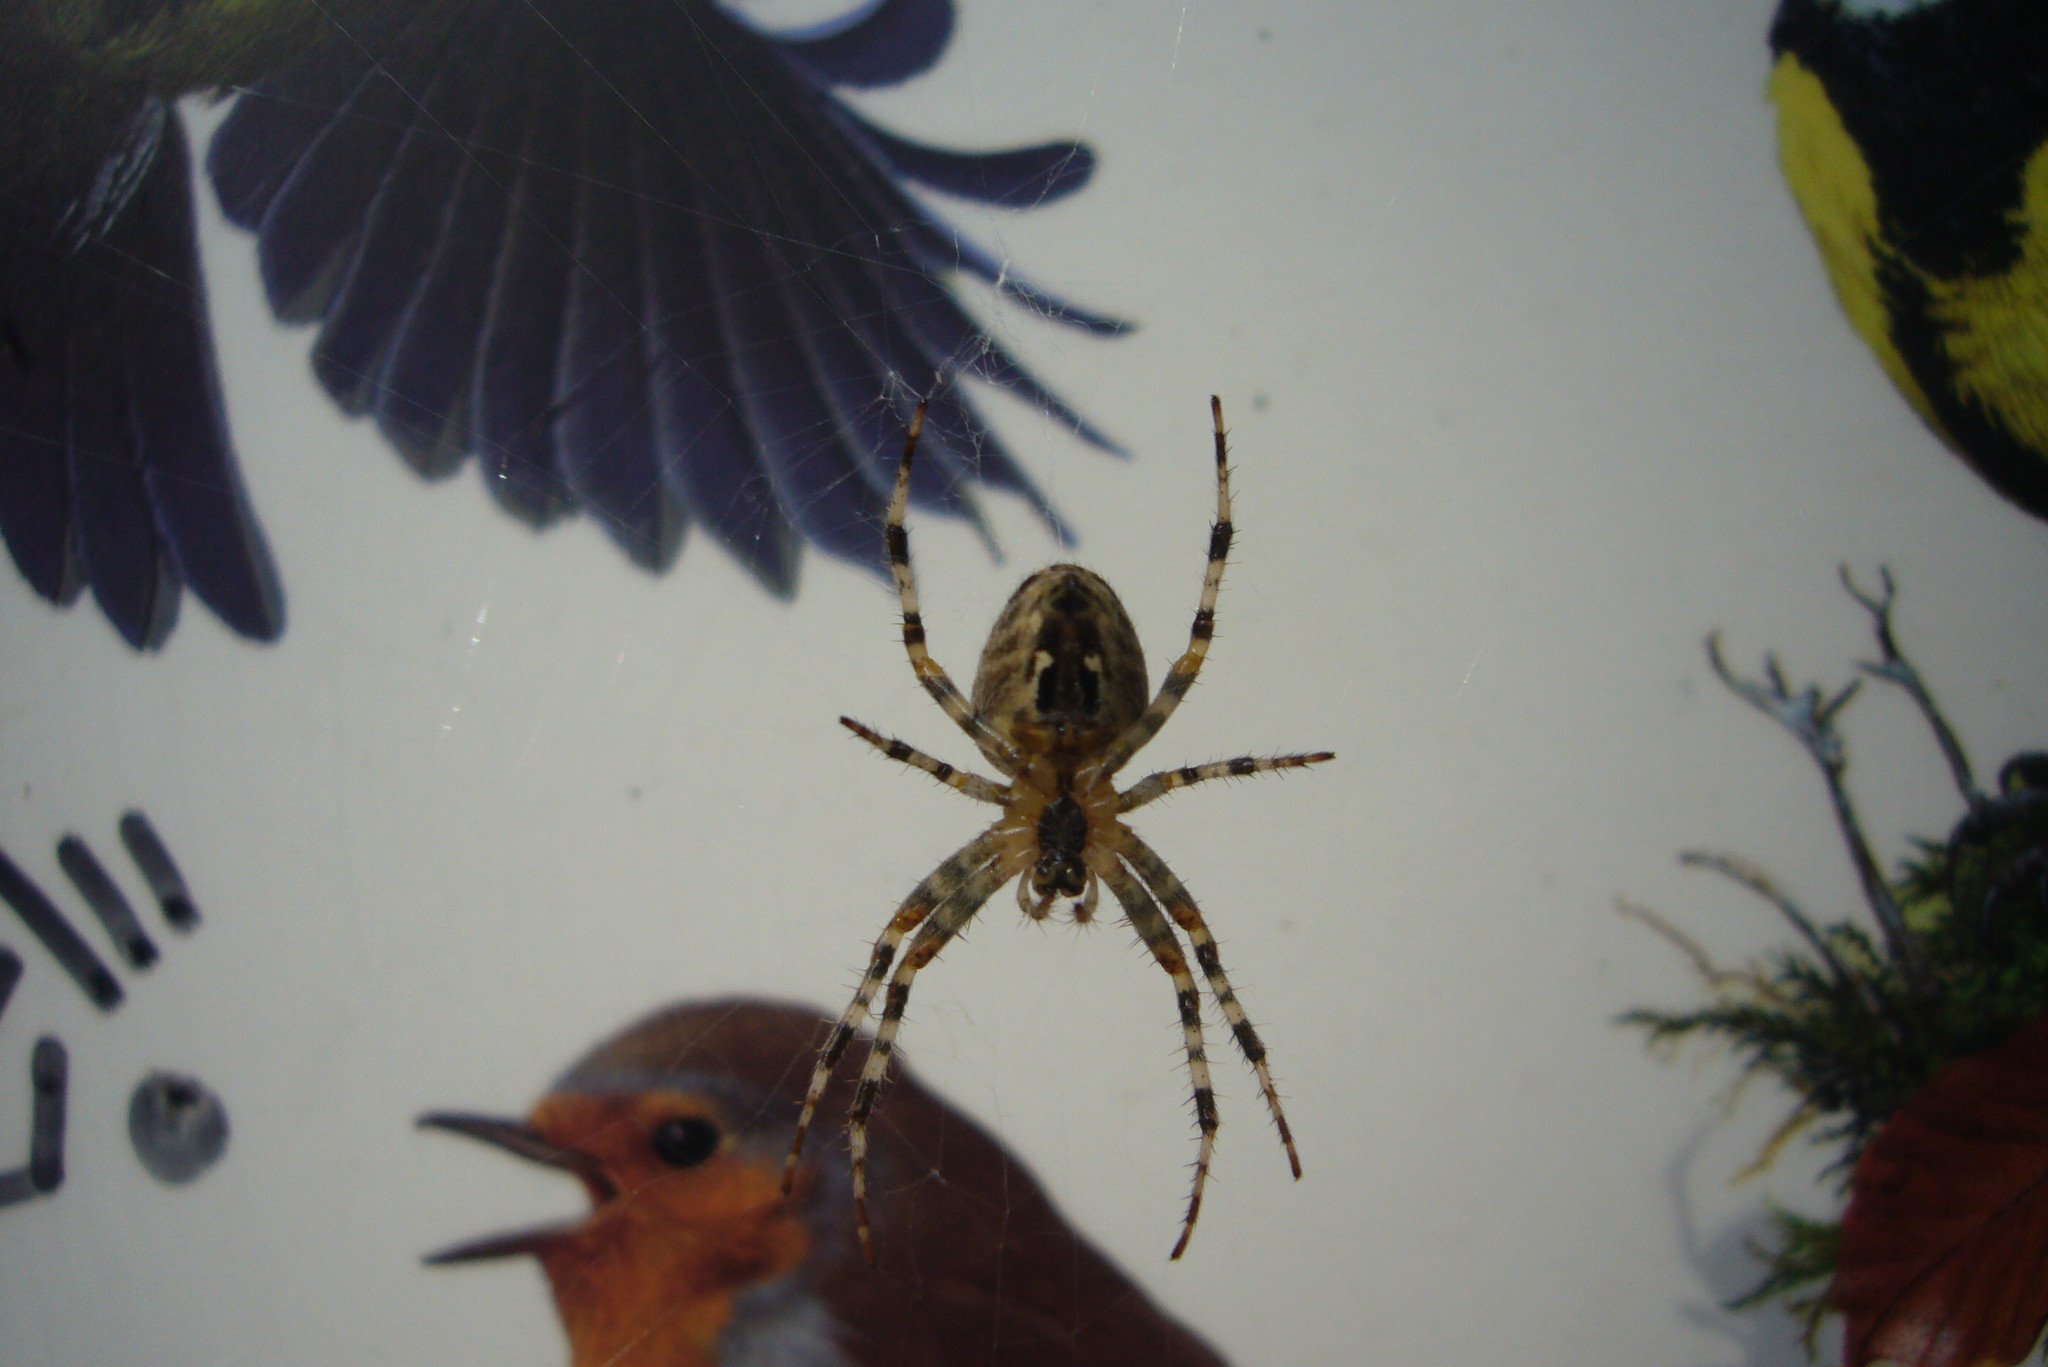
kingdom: Animalia
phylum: Arthropoda
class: Arachnida
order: Araneae
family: Araneidae
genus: Araneus
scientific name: Araneus diadematus
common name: Cross orbweaver
